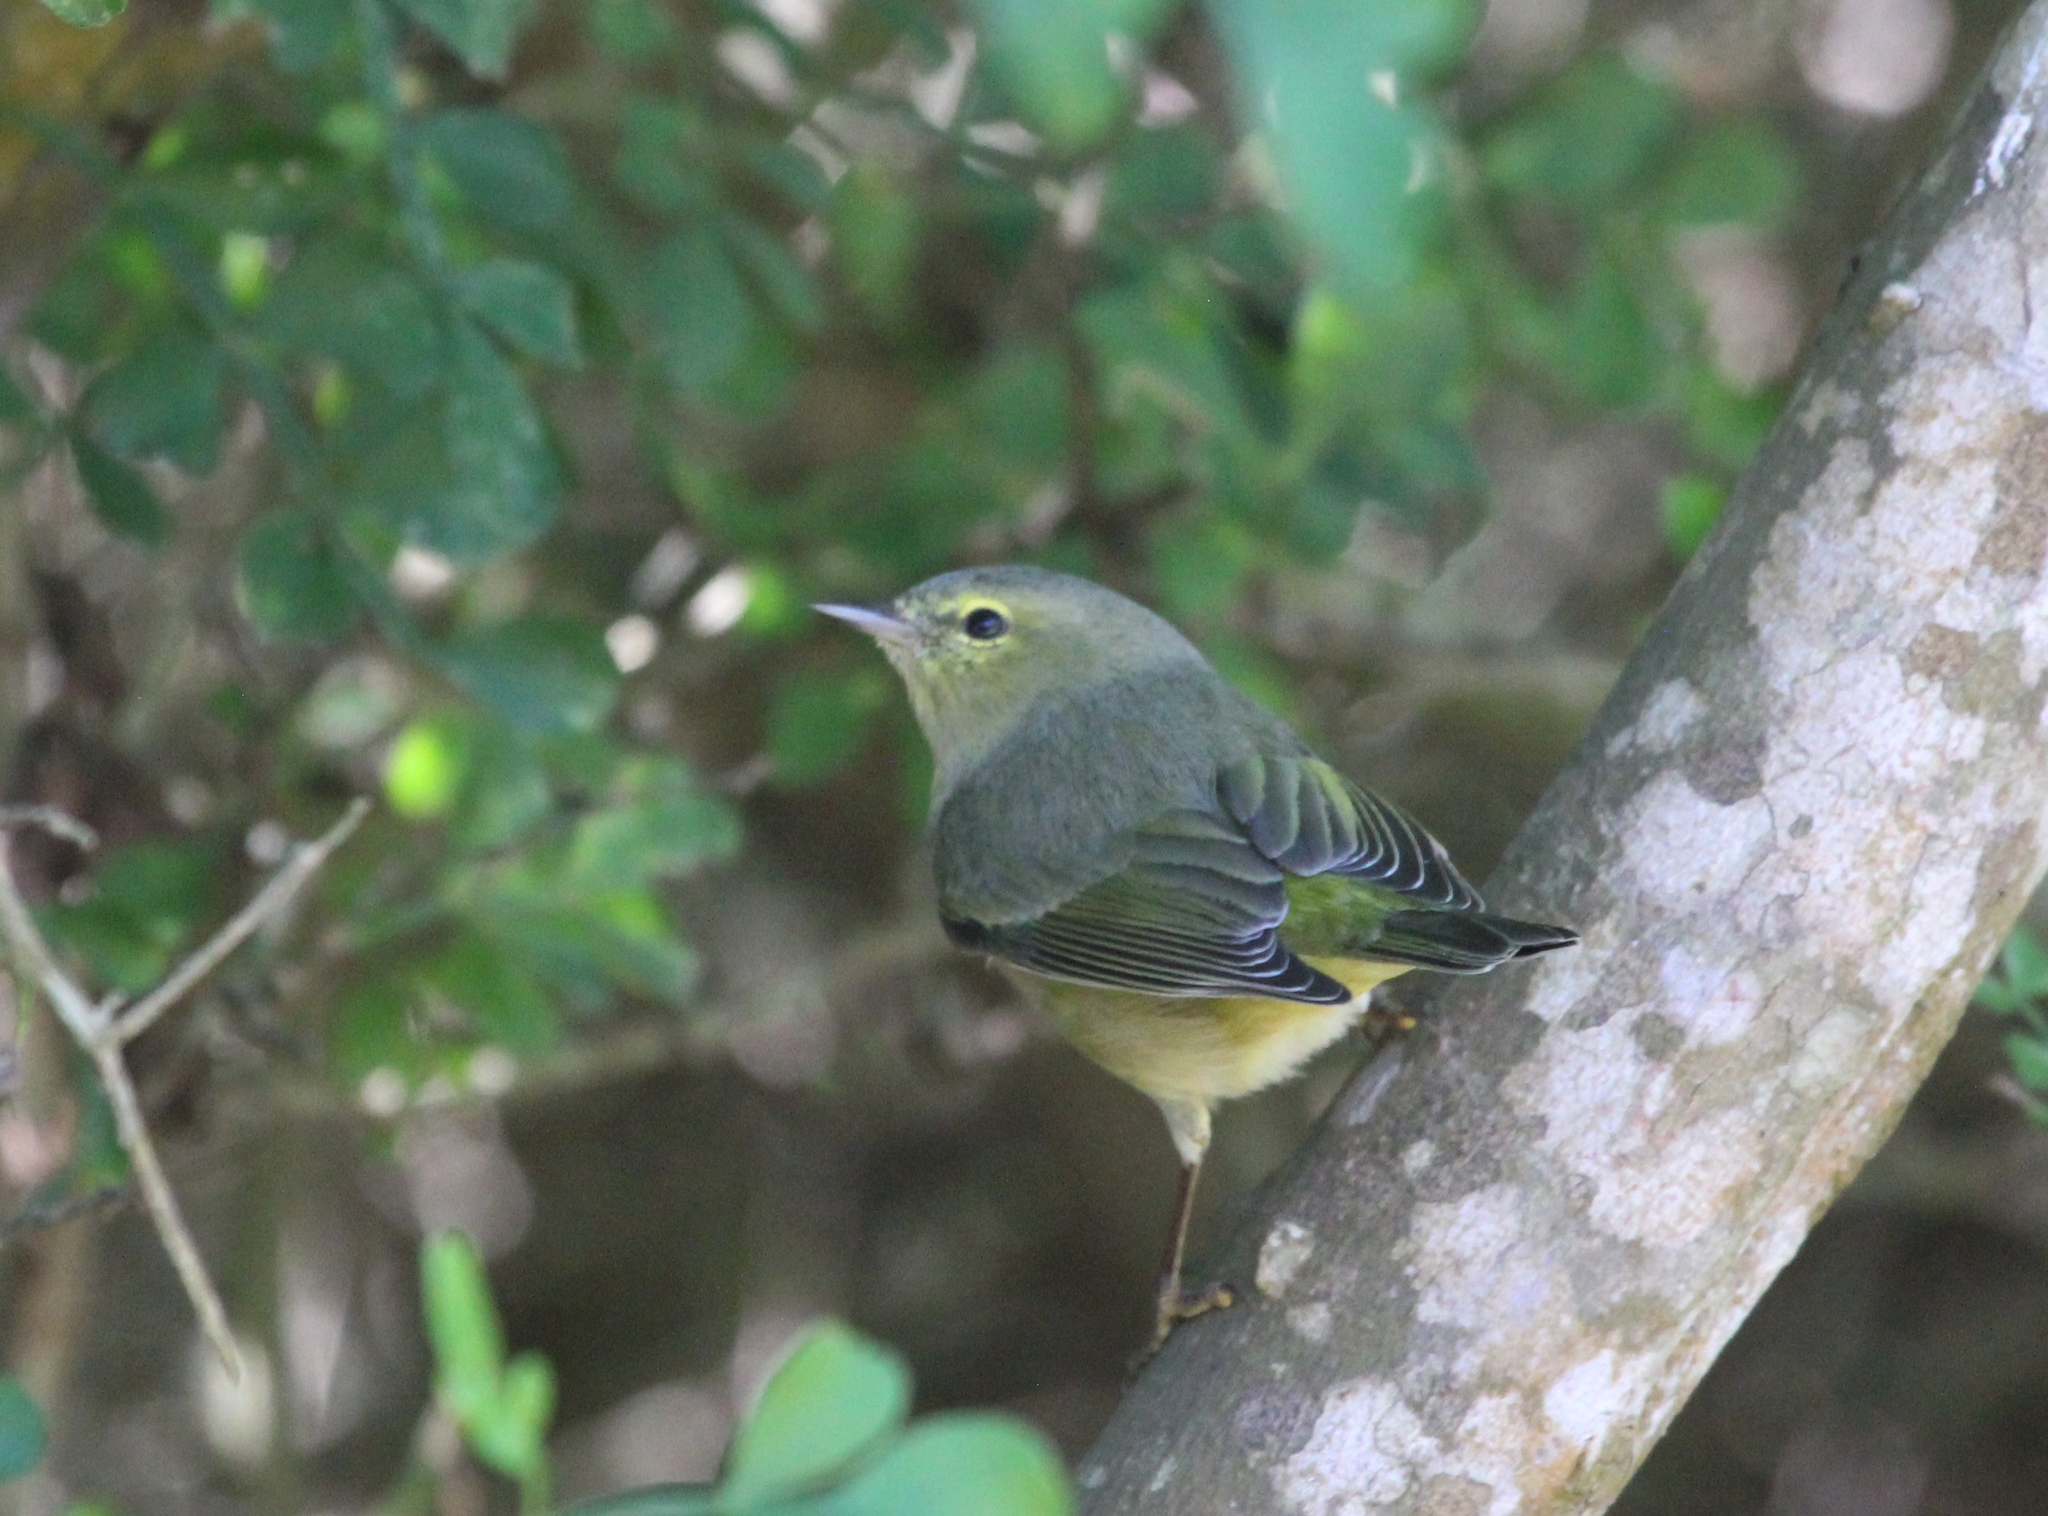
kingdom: Animalia
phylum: Chordata
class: Aves
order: Passeriformes
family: Parulidae
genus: Leiothlypis
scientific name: Leiothlypis celata
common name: Orange-crowned warbler
